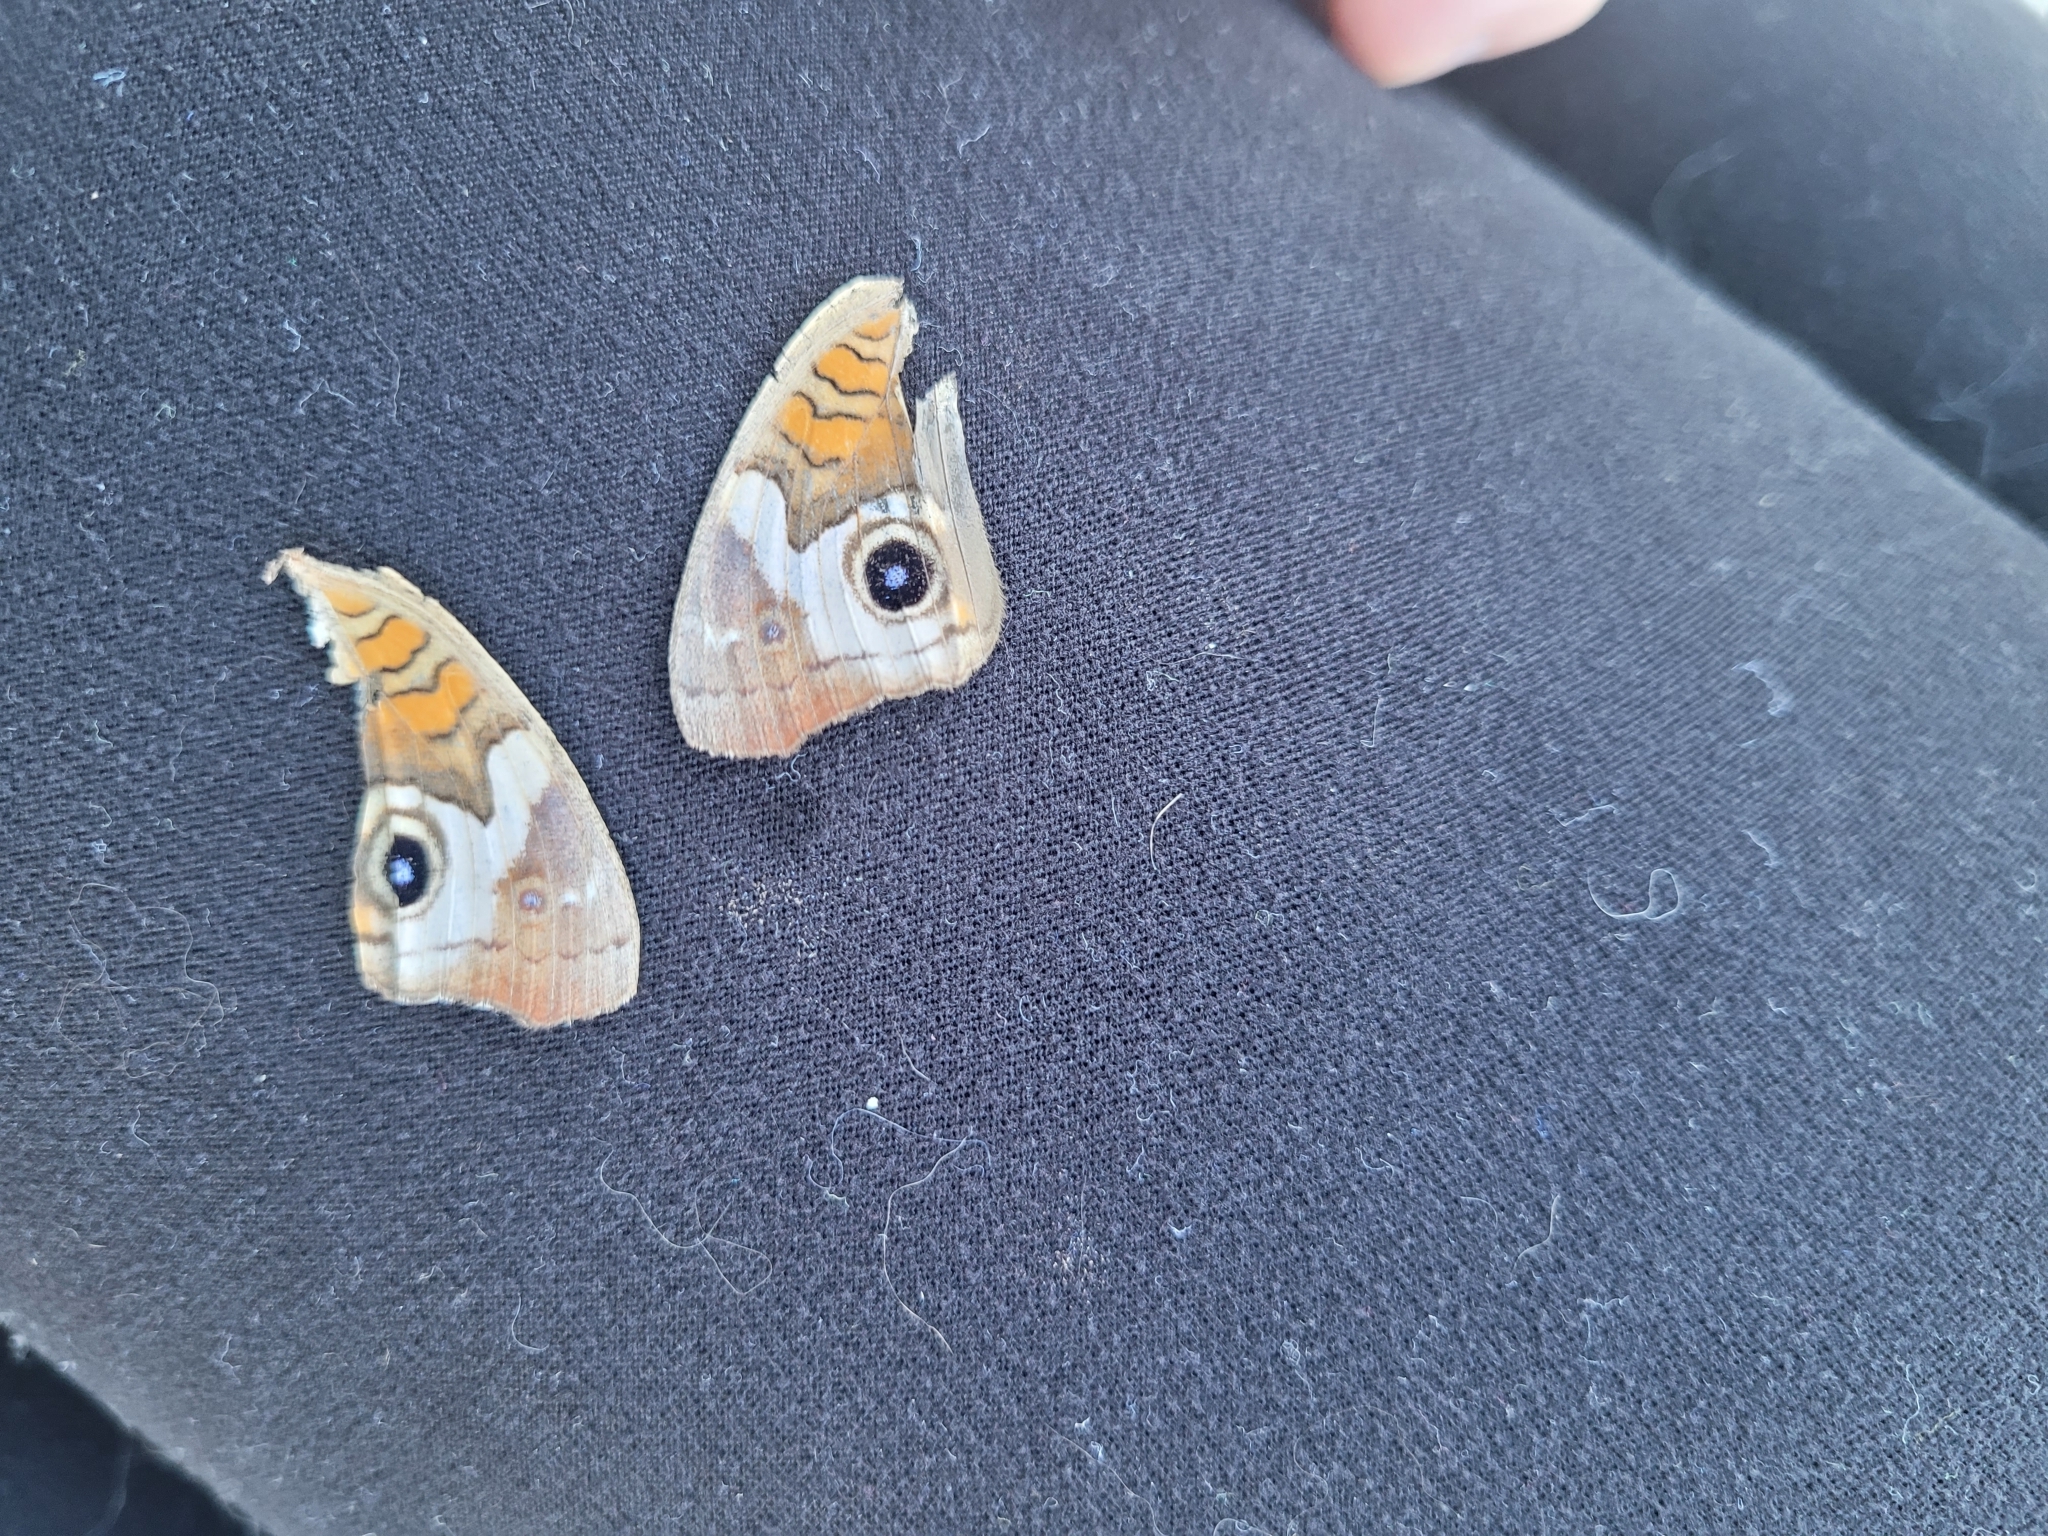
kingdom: Animalia
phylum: Arthropoda
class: Insecta
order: Lepidoptera
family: Nymphalidae
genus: Junonia
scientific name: Junonia coenia
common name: Common buckeye
